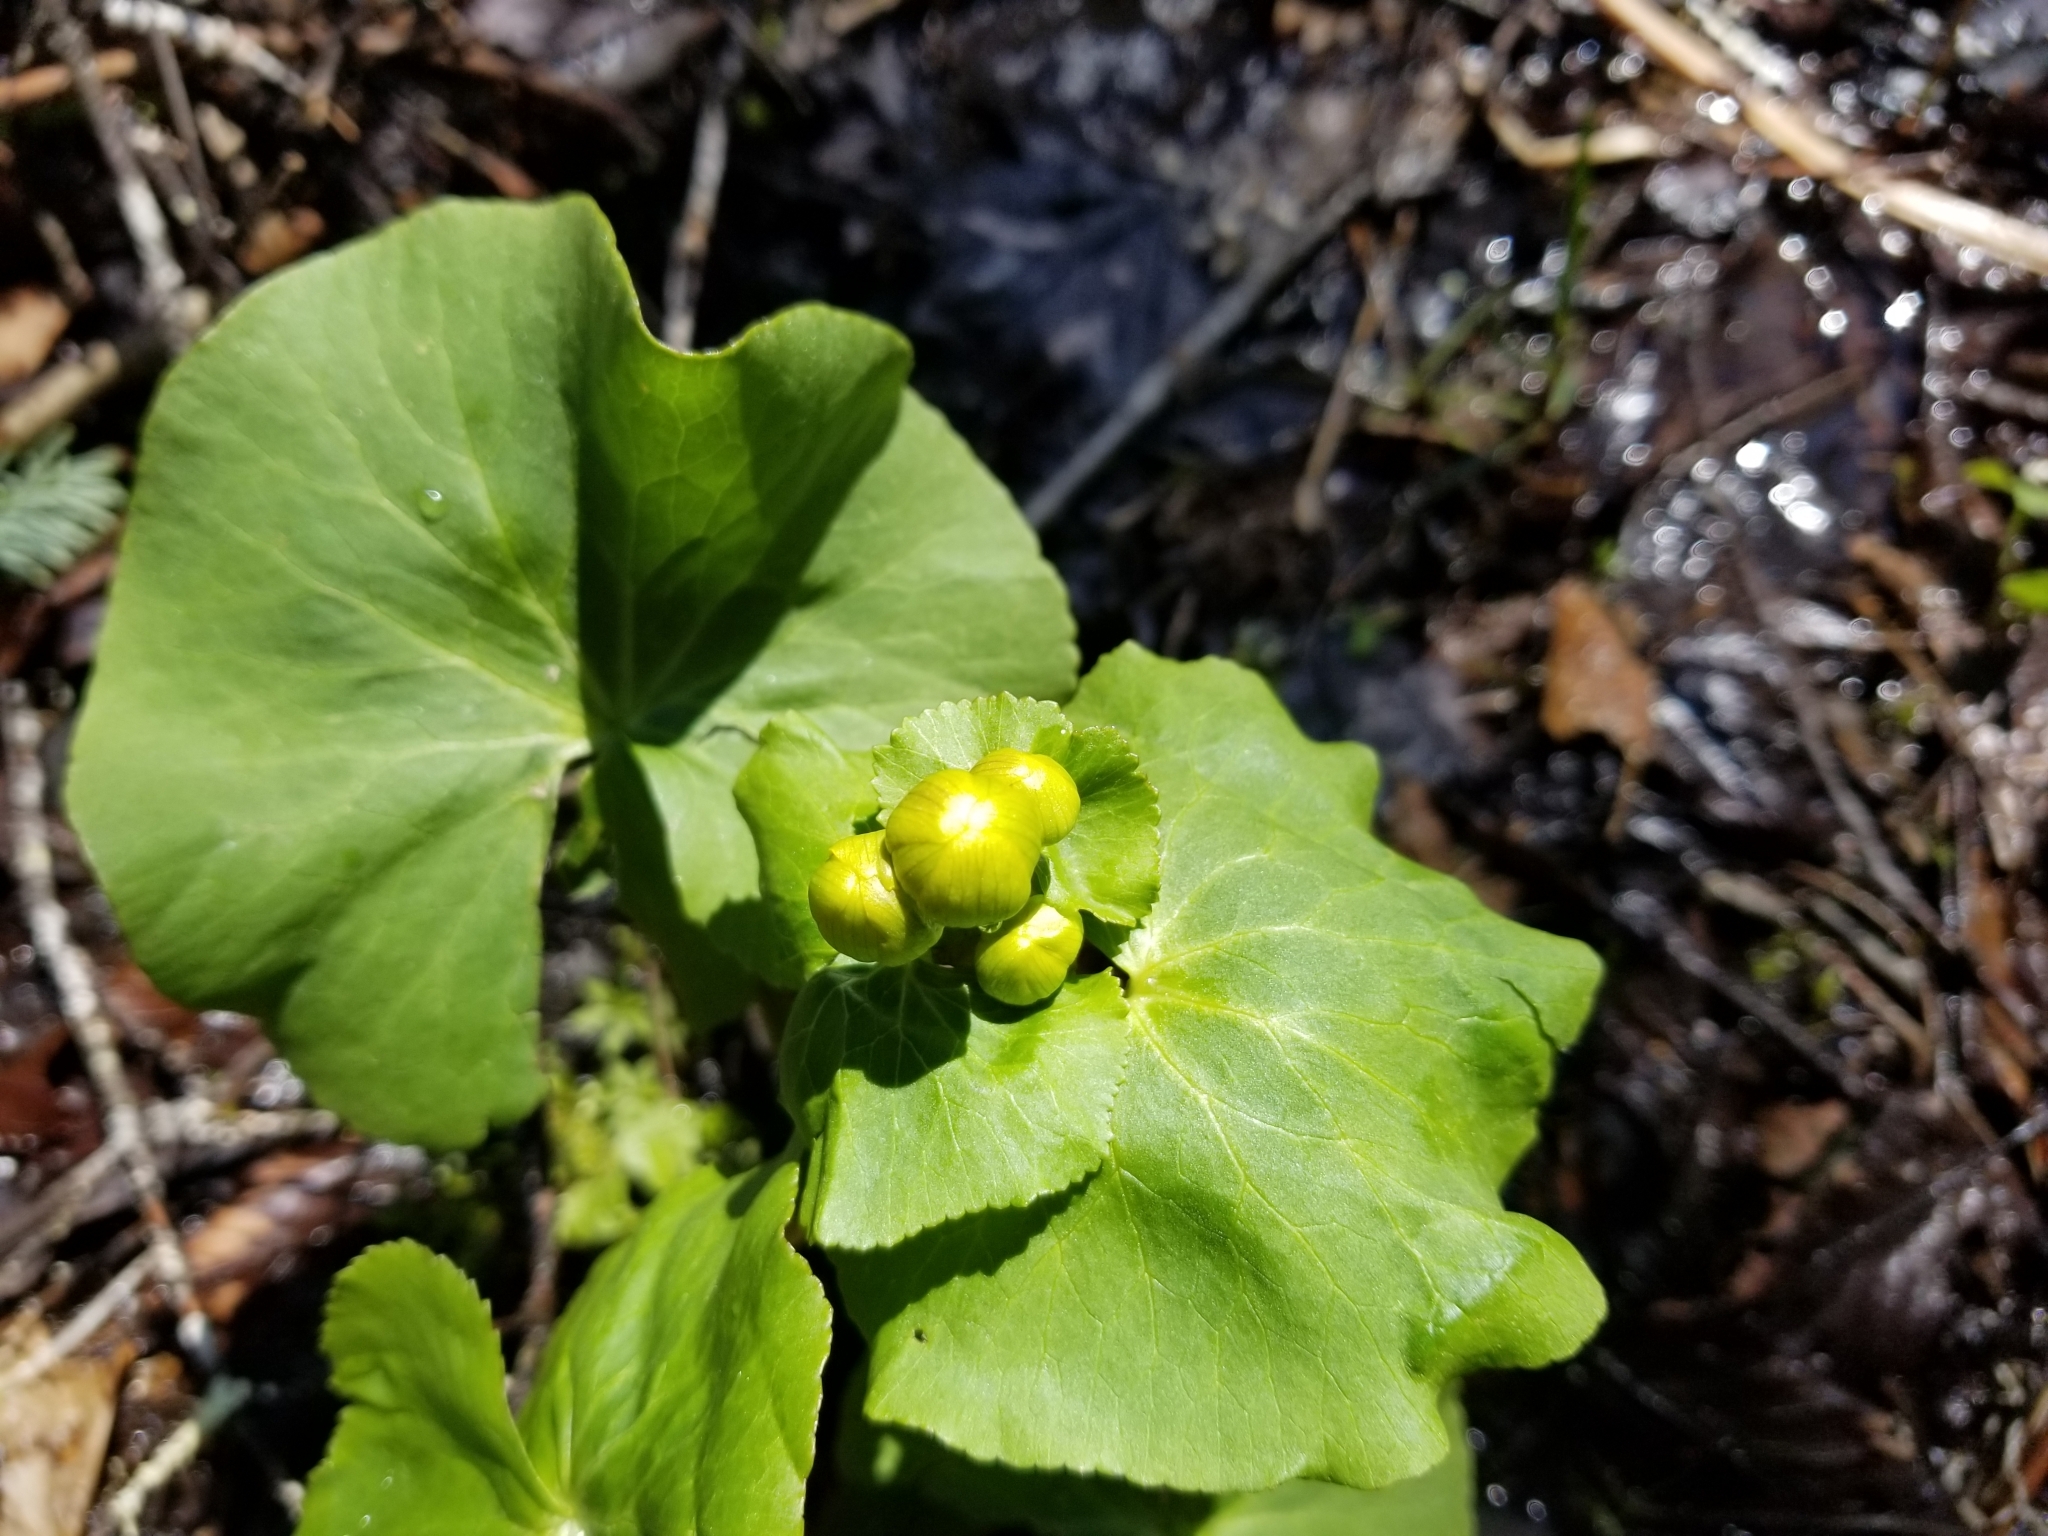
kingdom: Plantae
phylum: Tracheophyta
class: Magnoliopsida
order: Ranunculales
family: Ranunculaceae
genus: Caltha
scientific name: Caltha palustris
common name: Marsh marigold
